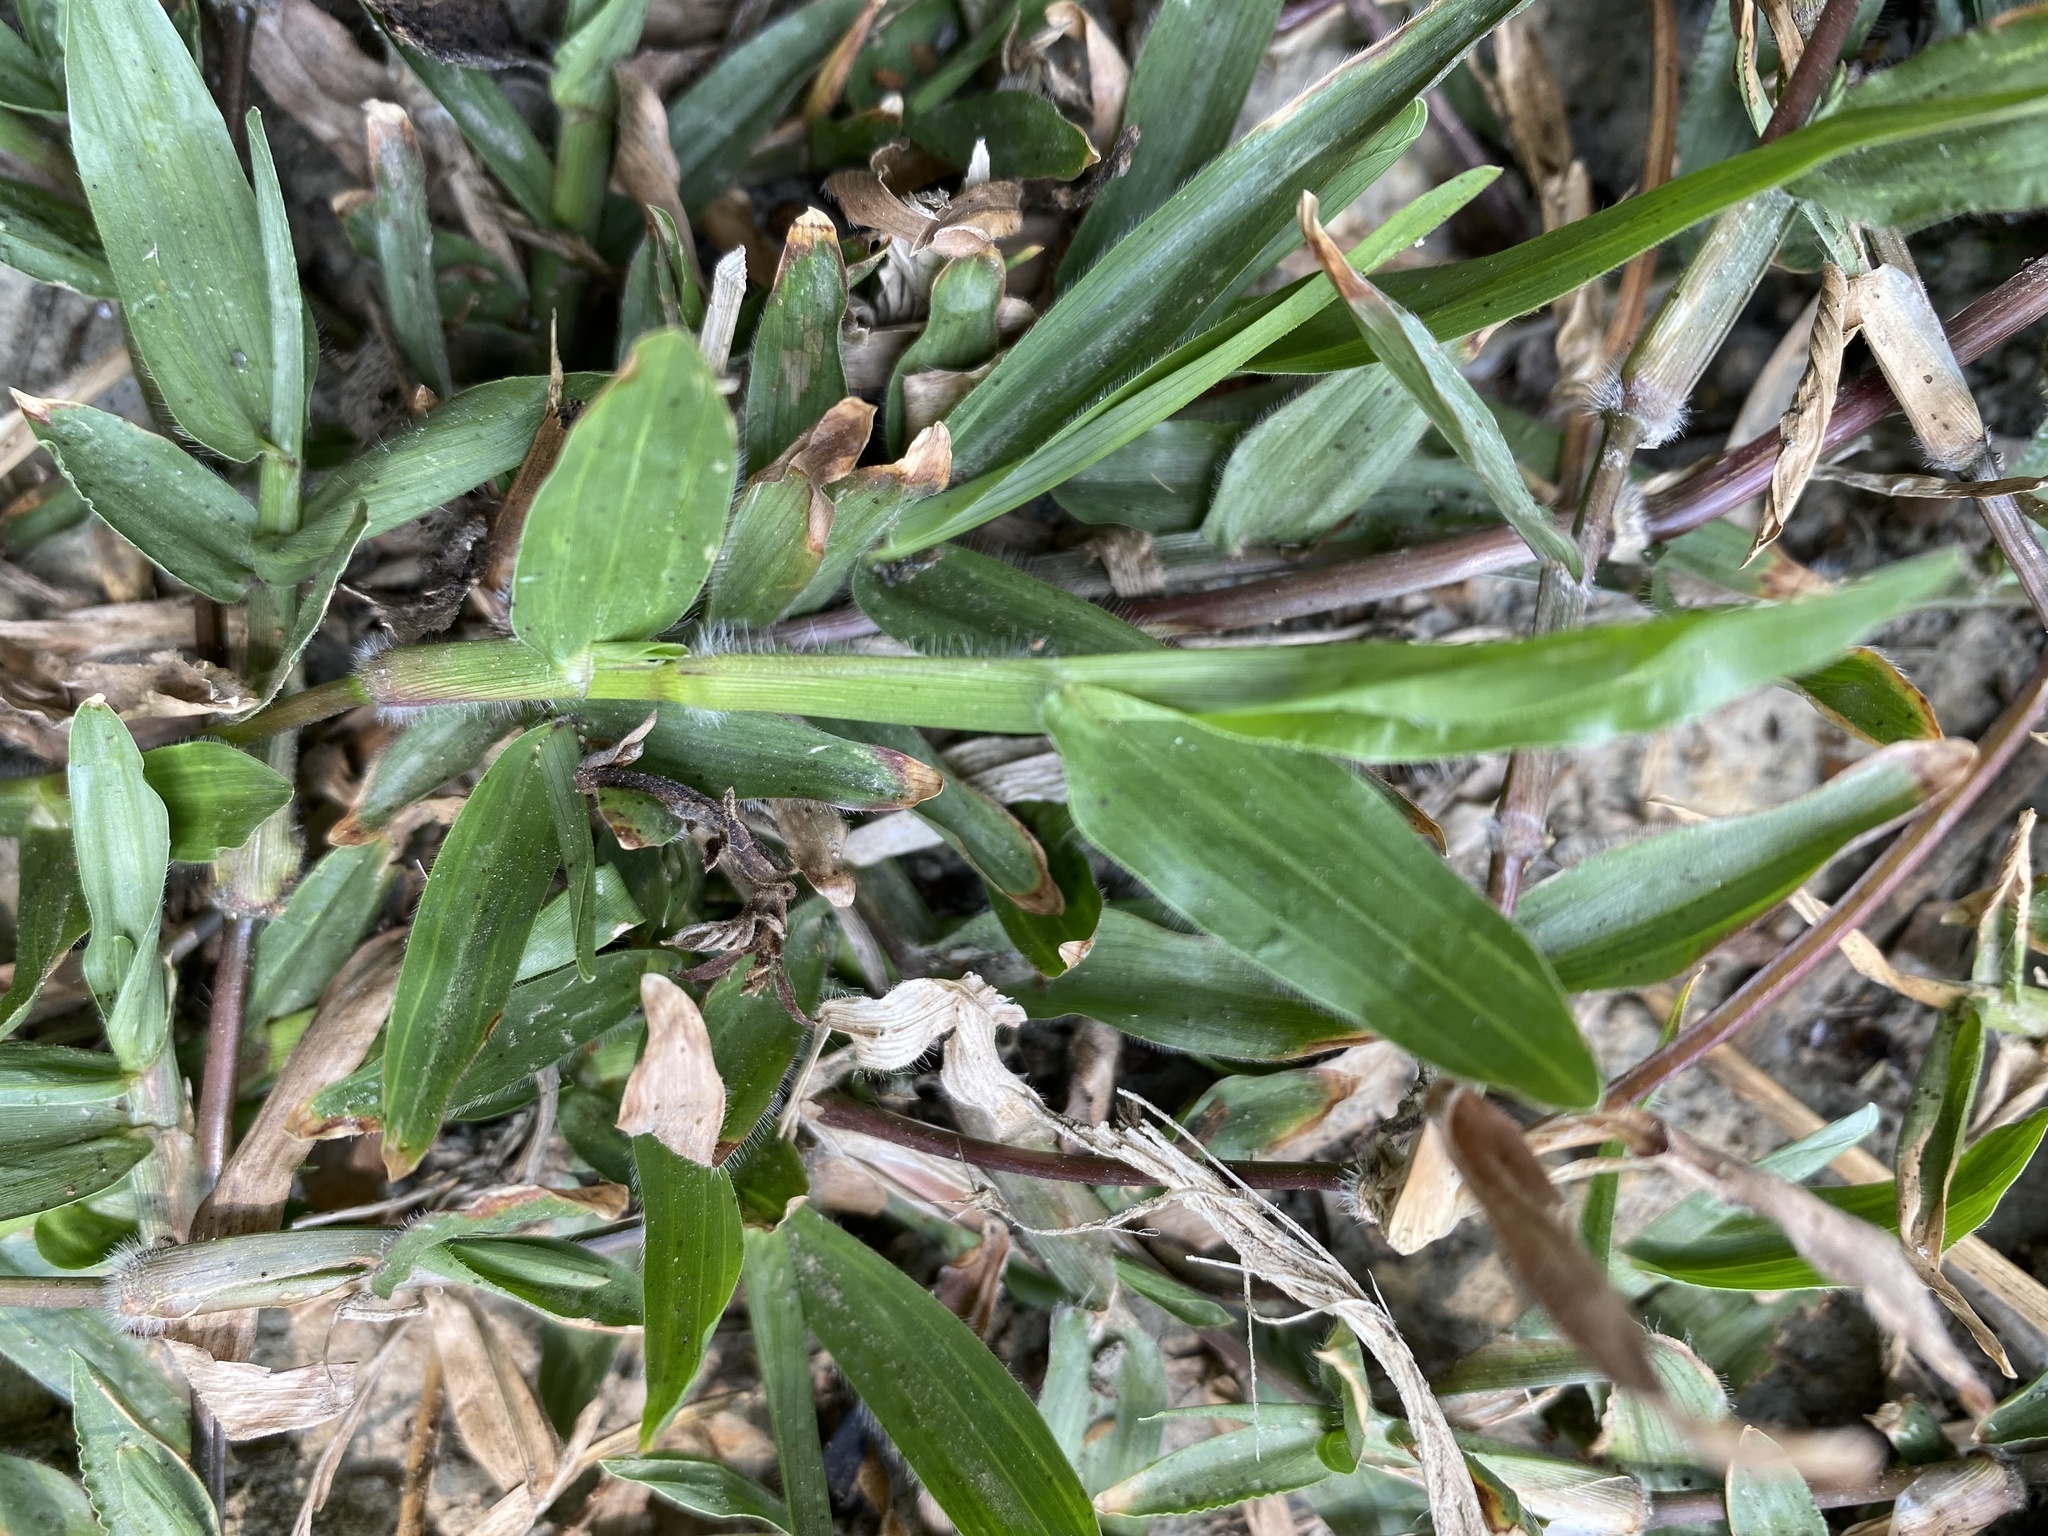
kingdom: Plantae
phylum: Tracheophyta
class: Liliopsida
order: Poales
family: Poaceae
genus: Axonopus
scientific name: Axonopus compressus
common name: American carpet grass
